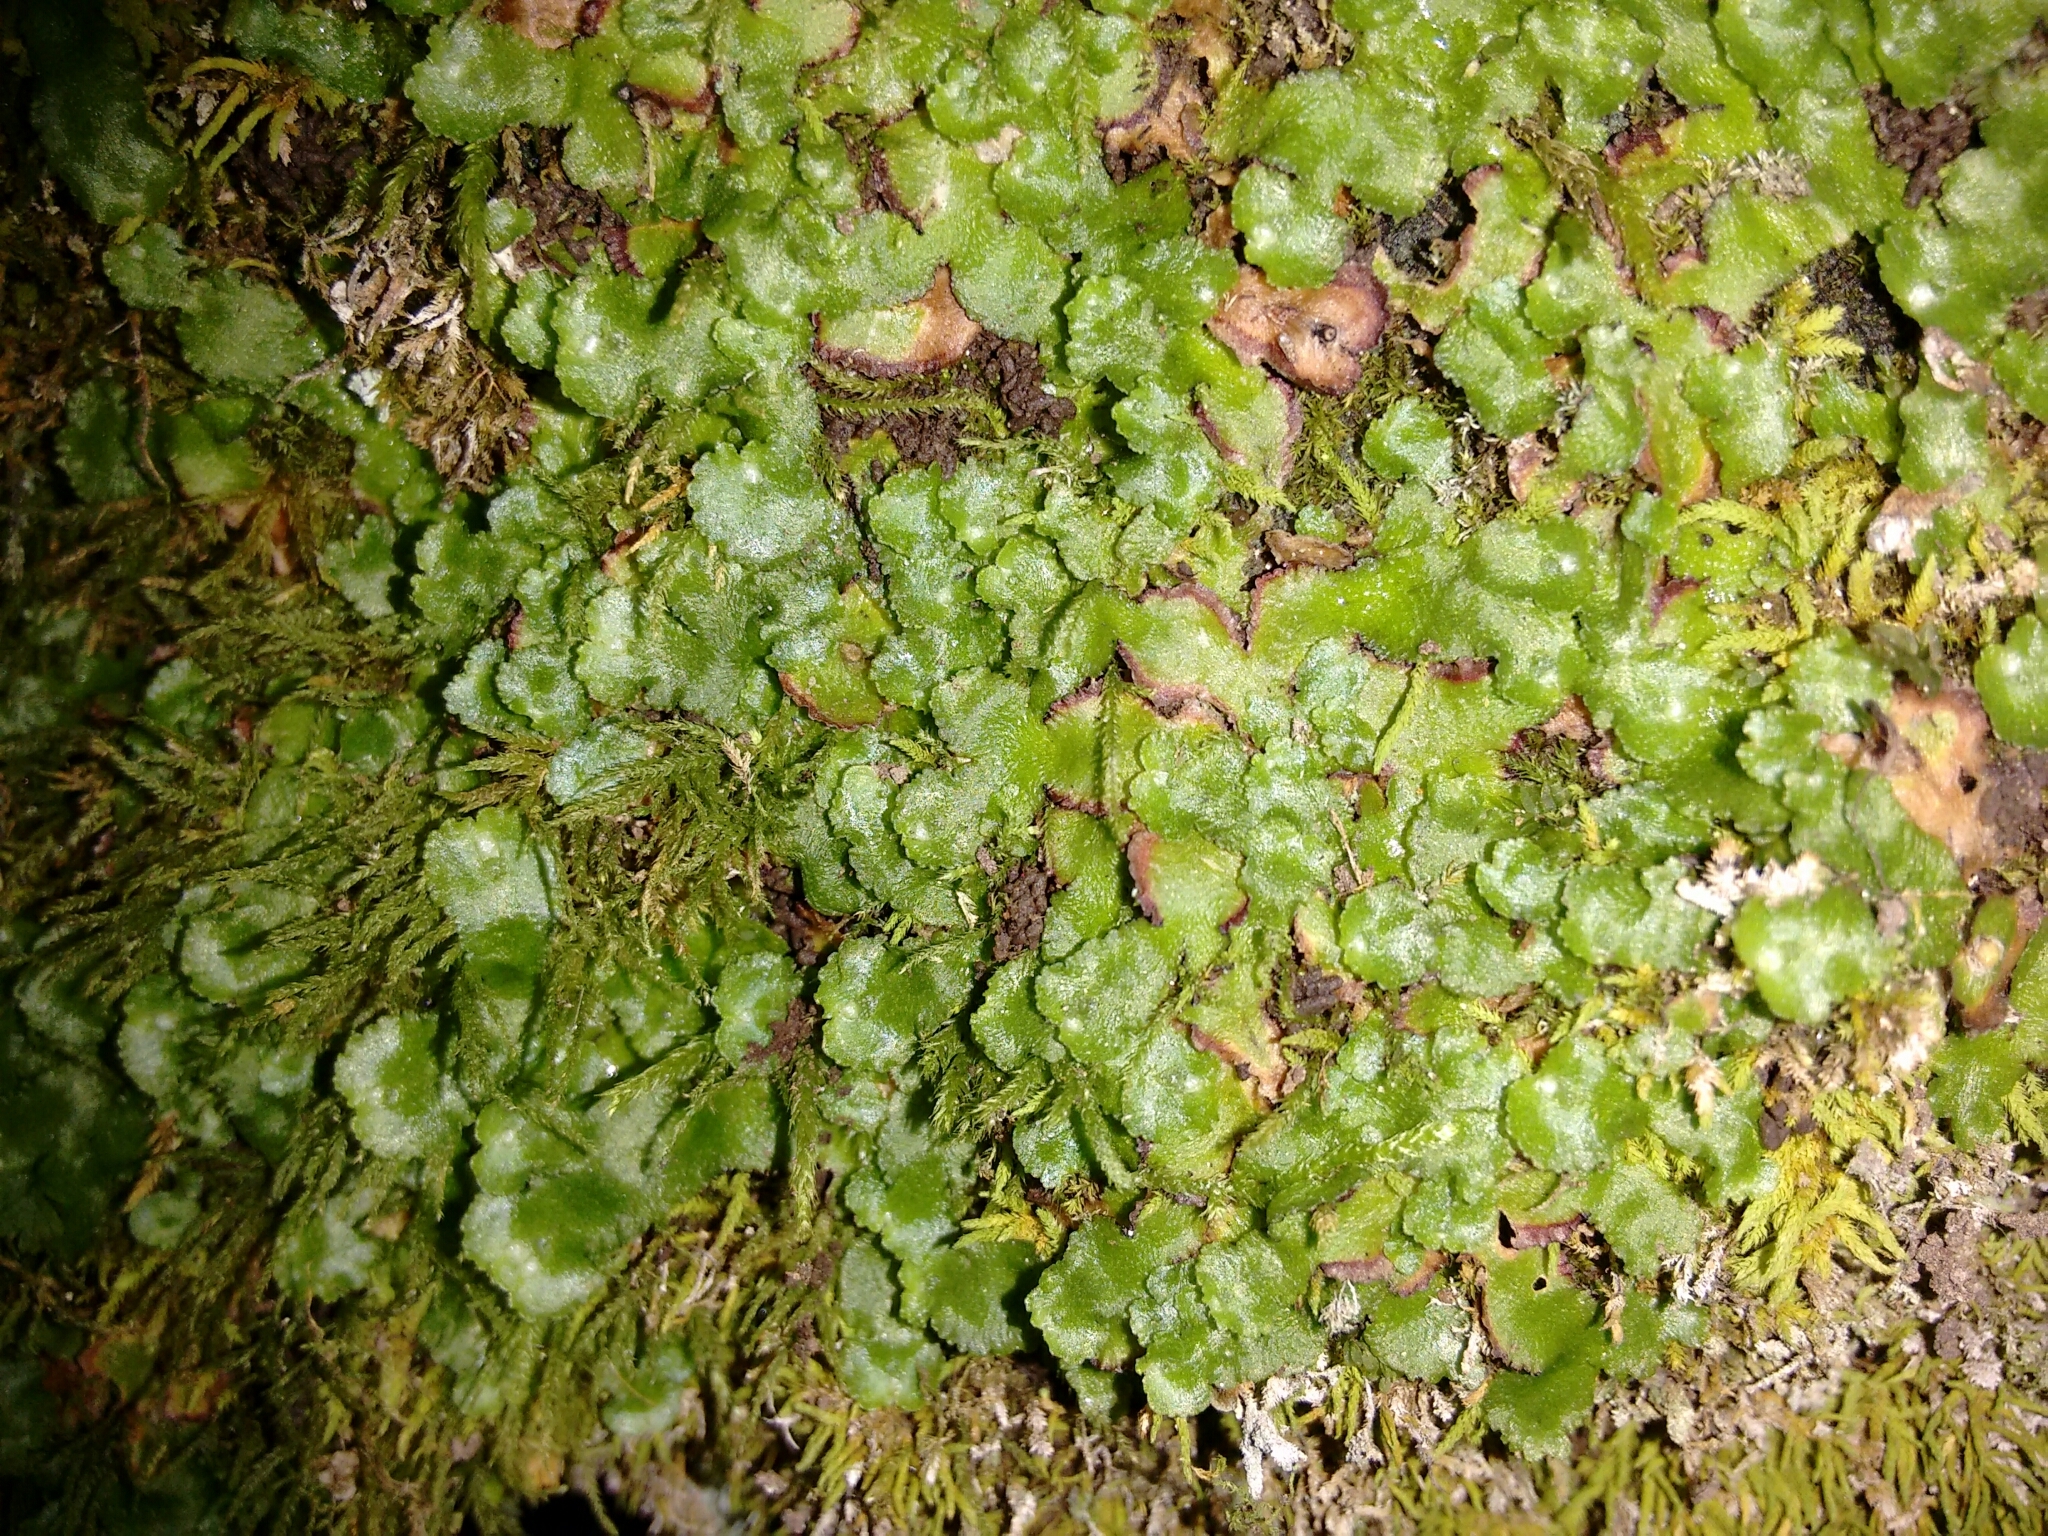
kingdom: Plantae
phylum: Marchantiophyta
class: Marchantiopsida
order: Marchantiales
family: Aytoniaceae
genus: Reboulia
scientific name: Reboulia hemisphaerica
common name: Purple-margined liverwort
